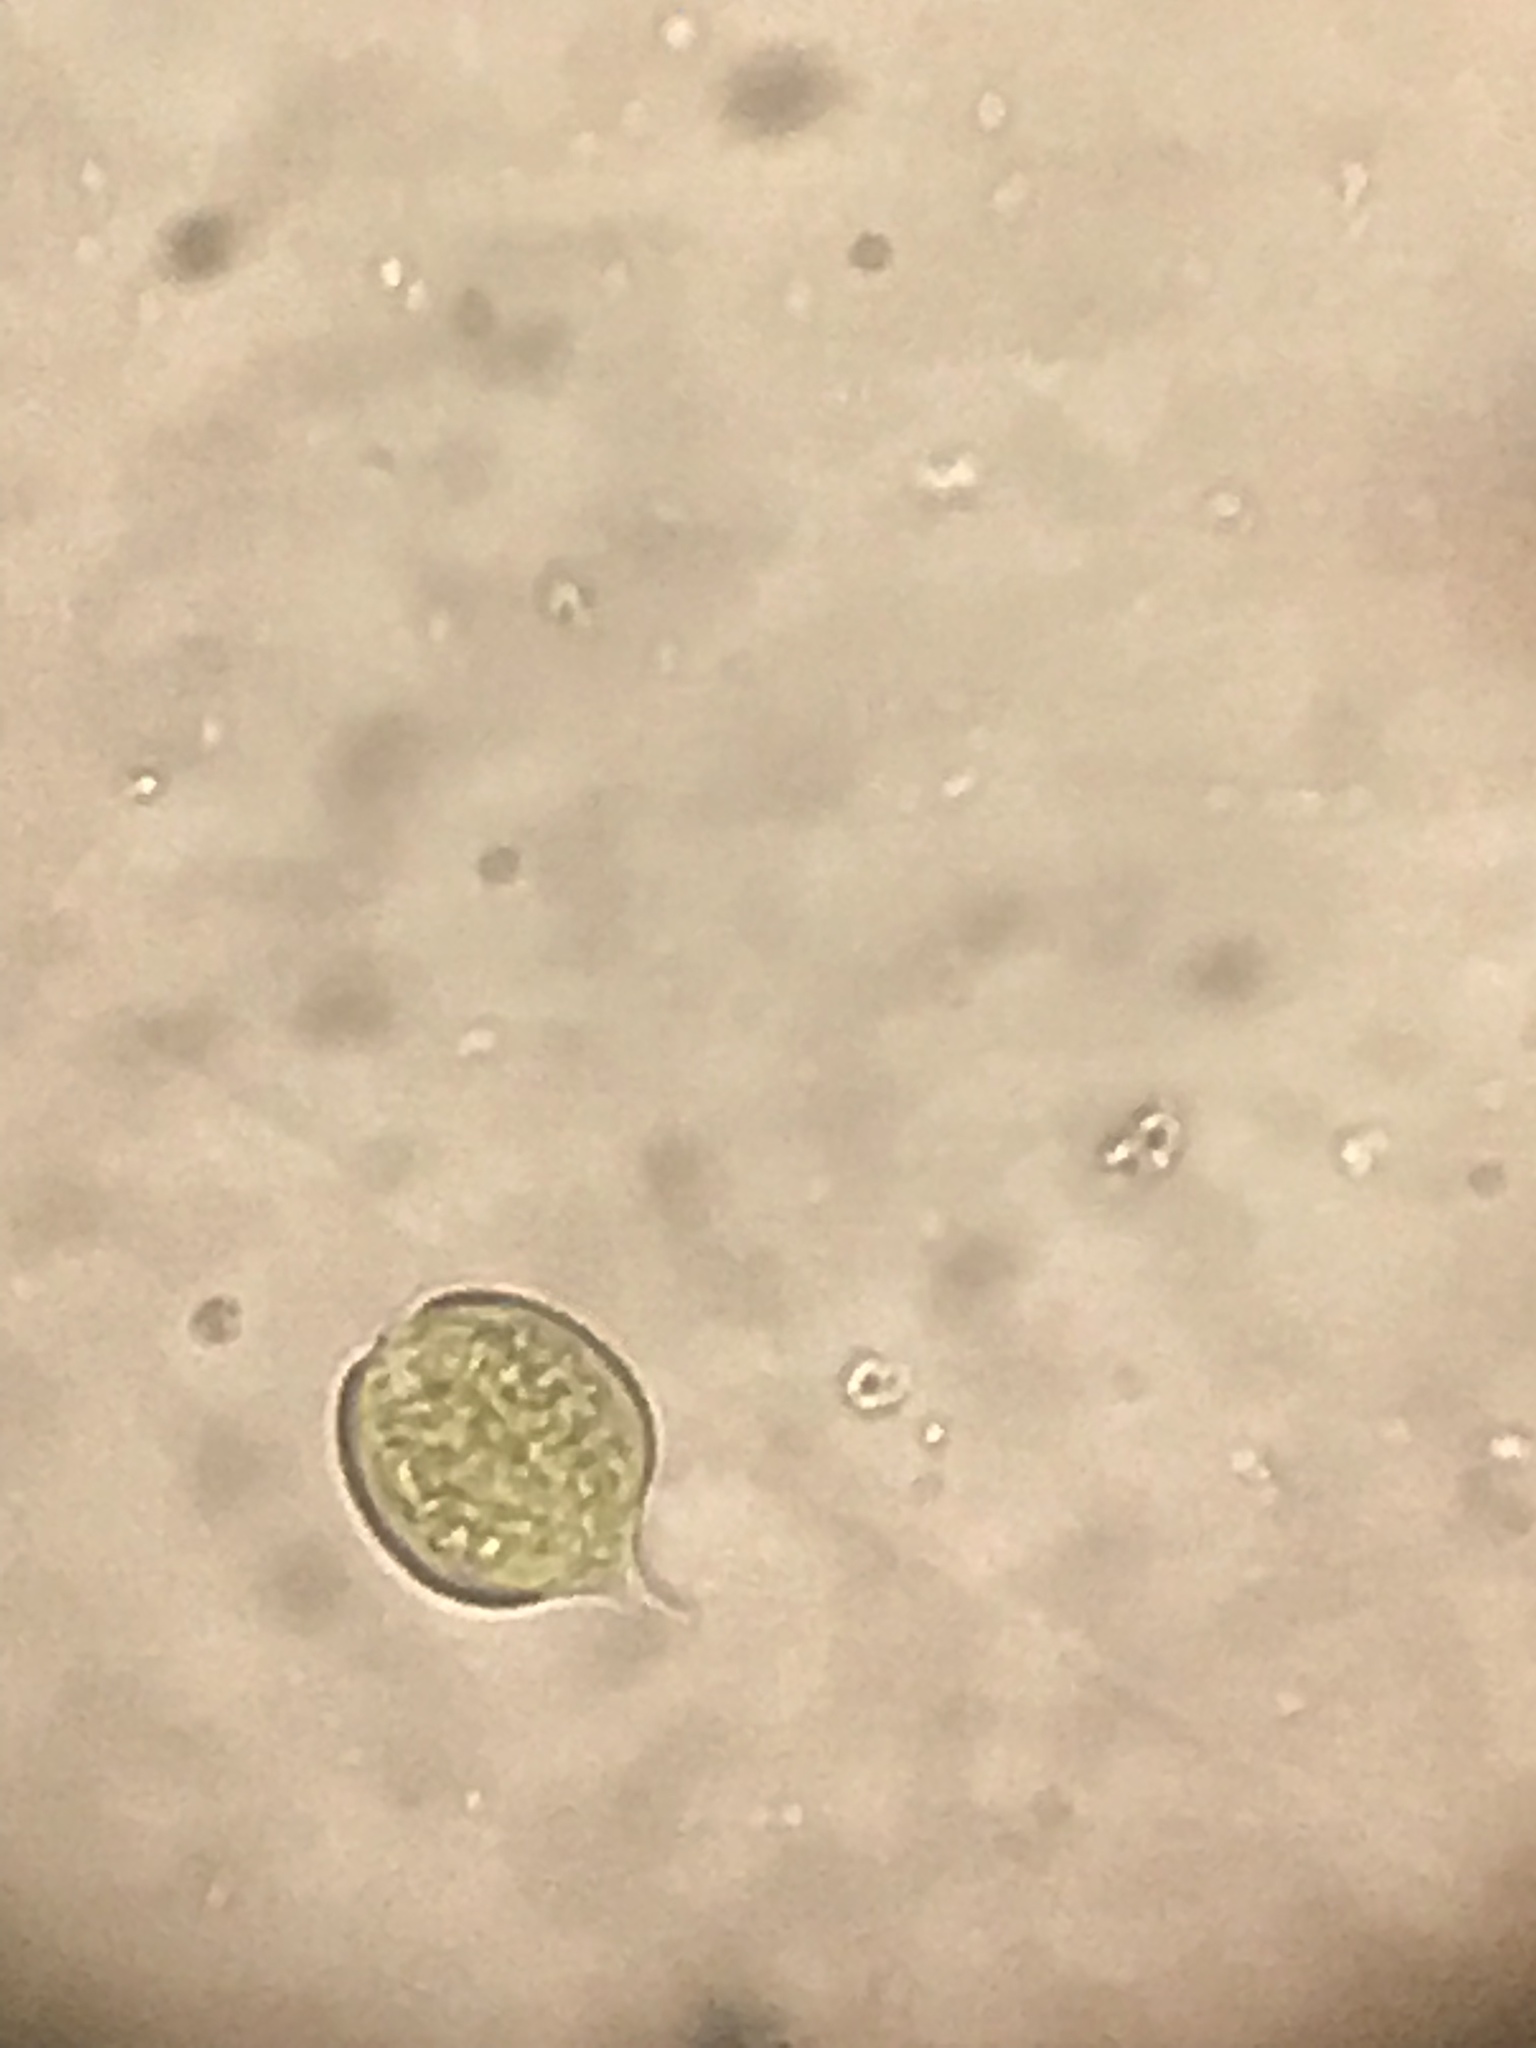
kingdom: Protozoa
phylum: Euglenozoa
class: Euglenoidea
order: Euglenida
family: Phacidae
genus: Phacus
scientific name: Phacus monilatus
